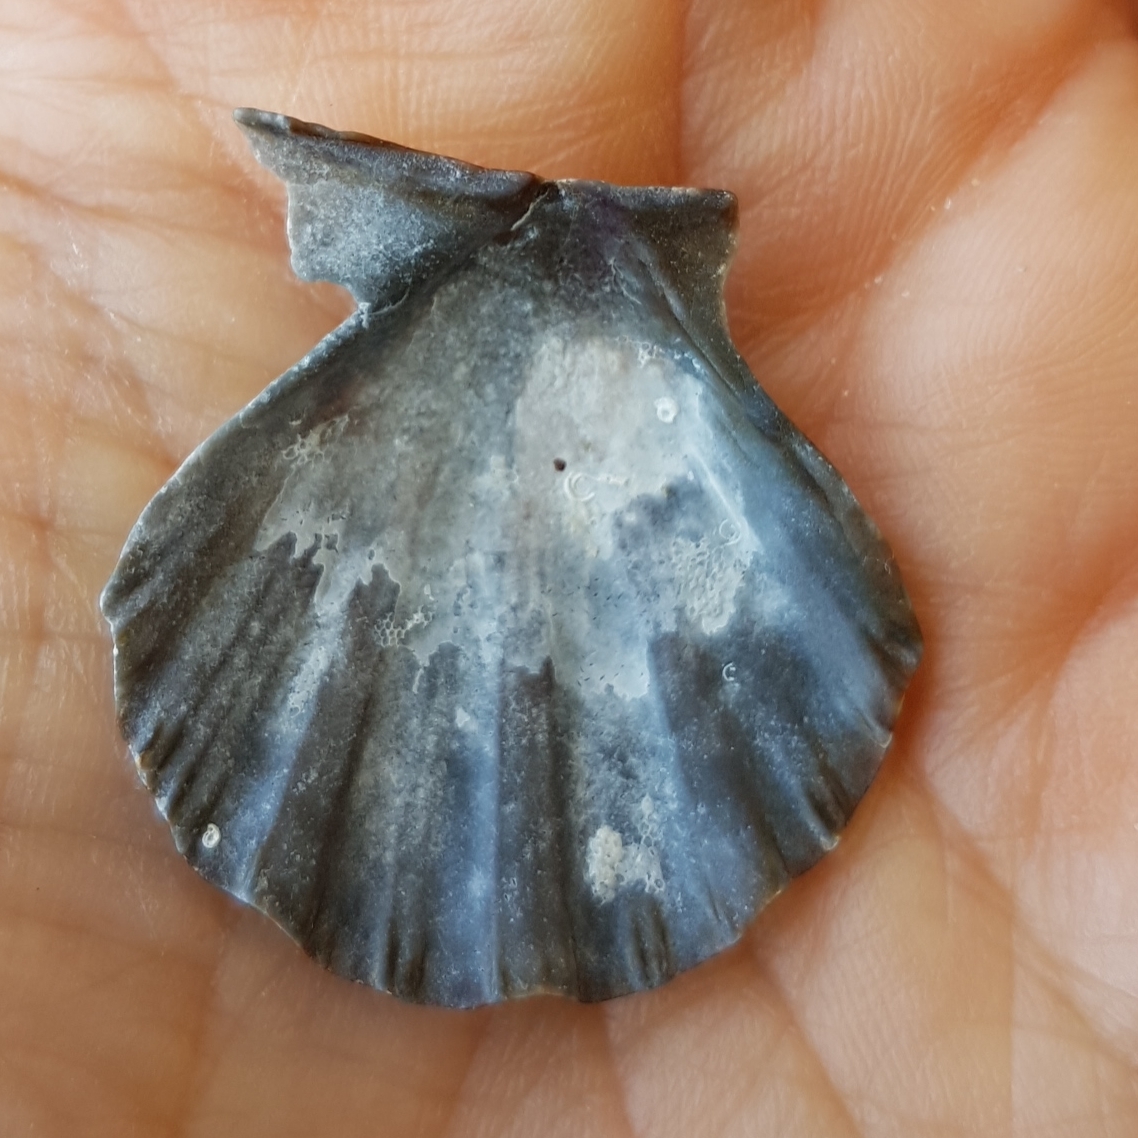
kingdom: Animalia
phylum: Mollusca
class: Bivalvia
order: Pectinida
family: Pectinidae
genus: Flexopecten
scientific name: Flexopecten glaber
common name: Smooth scallop
